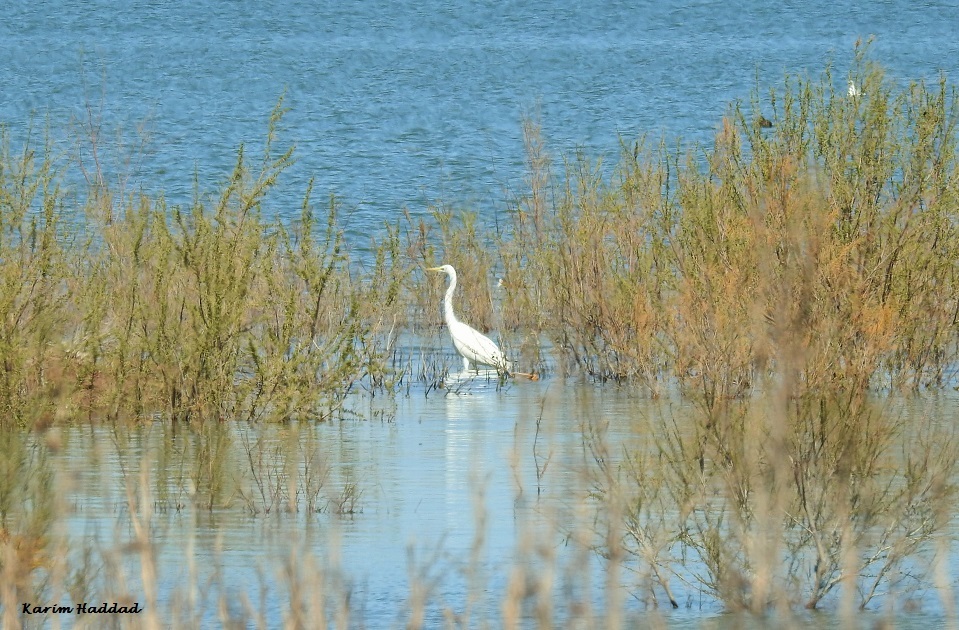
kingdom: Animalia
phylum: Chordata
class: Aves
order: Pelecaniformes
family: Ardeidae
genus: Ardea
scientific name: Ardea alba
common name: Great egret
